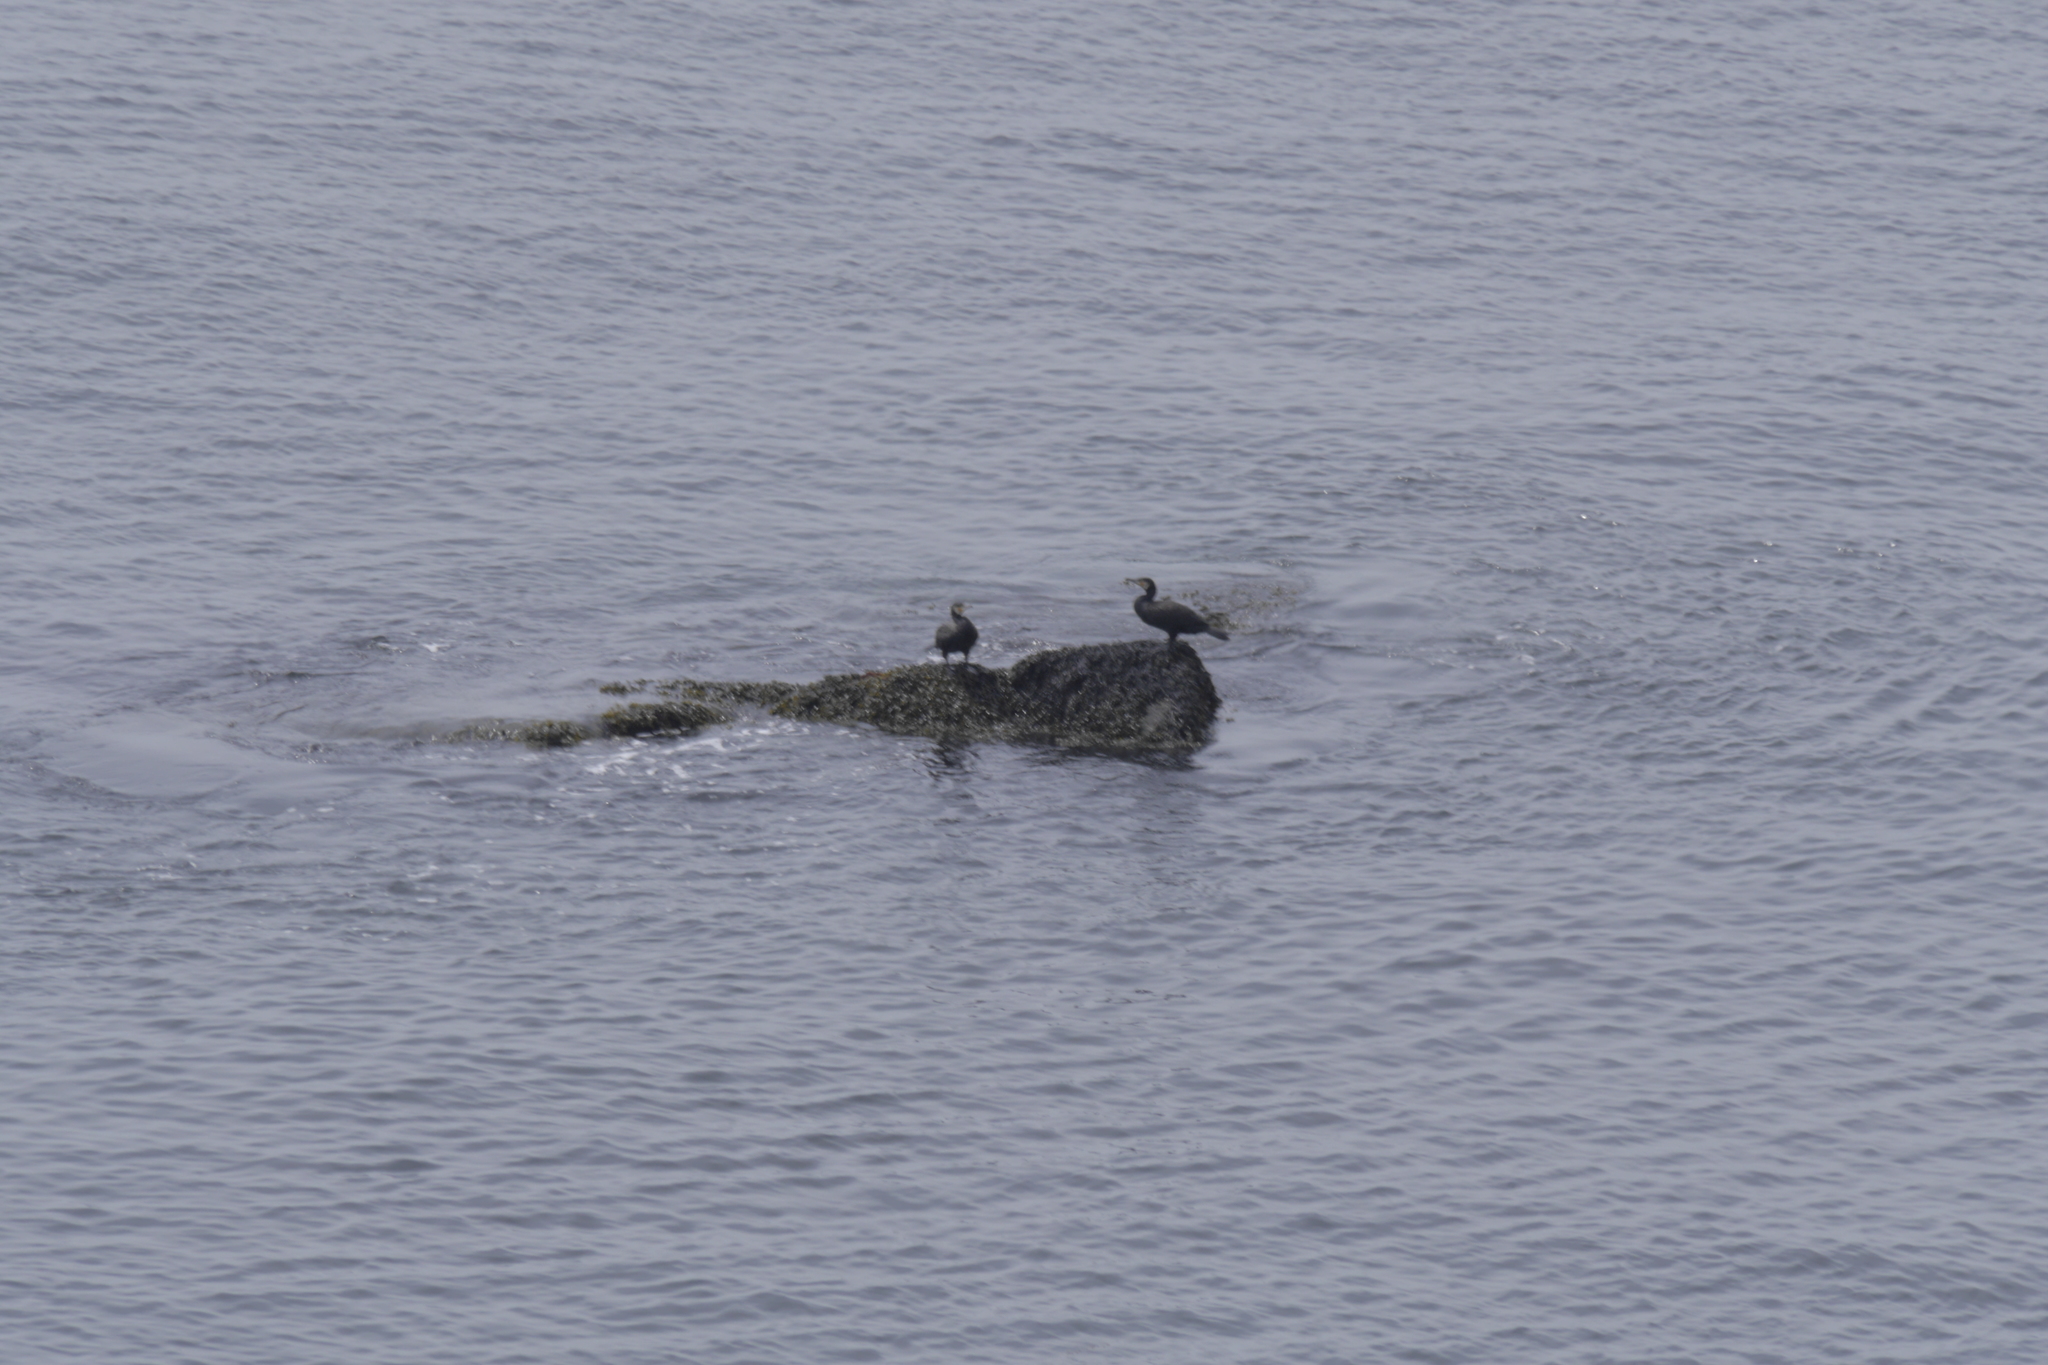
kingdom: Animalia
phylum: Chordata
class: Aves
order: Suliformes
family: Phalacrocoracidae
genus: Phalacrocorax
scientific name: Phalacrocorax carbo
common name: Great cormorant
